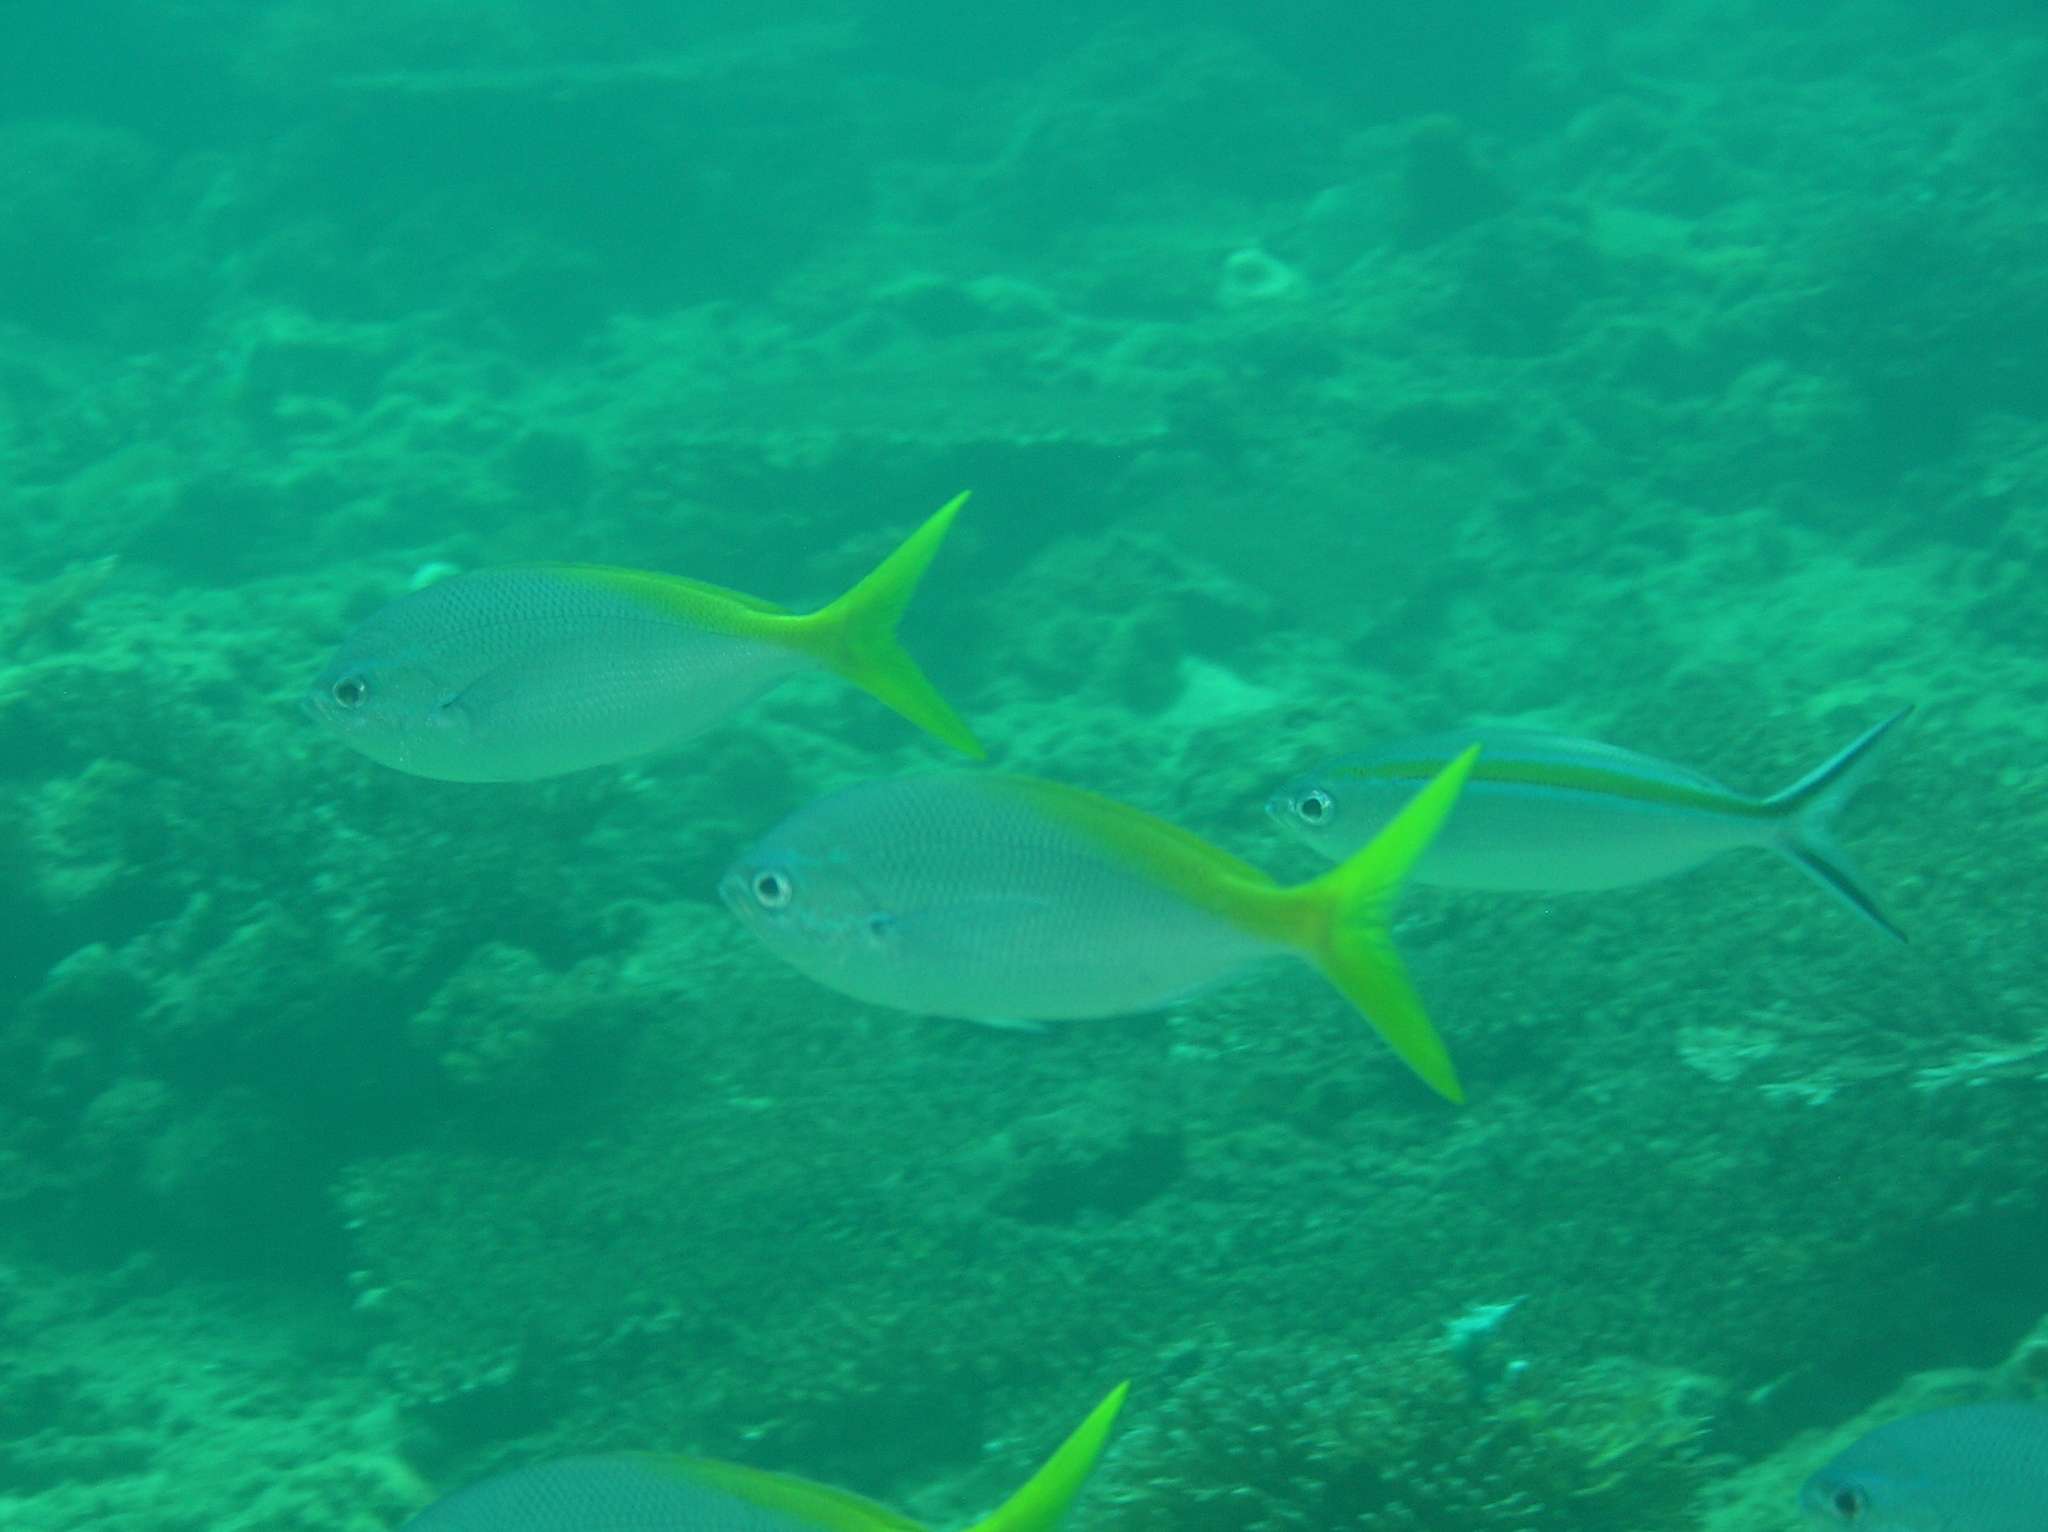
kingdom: Animalia
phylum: Chordata
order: Perciformes
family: Caesionidae
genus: Caesio
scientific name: Caesio cuning
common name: Red-bellied fusilier
